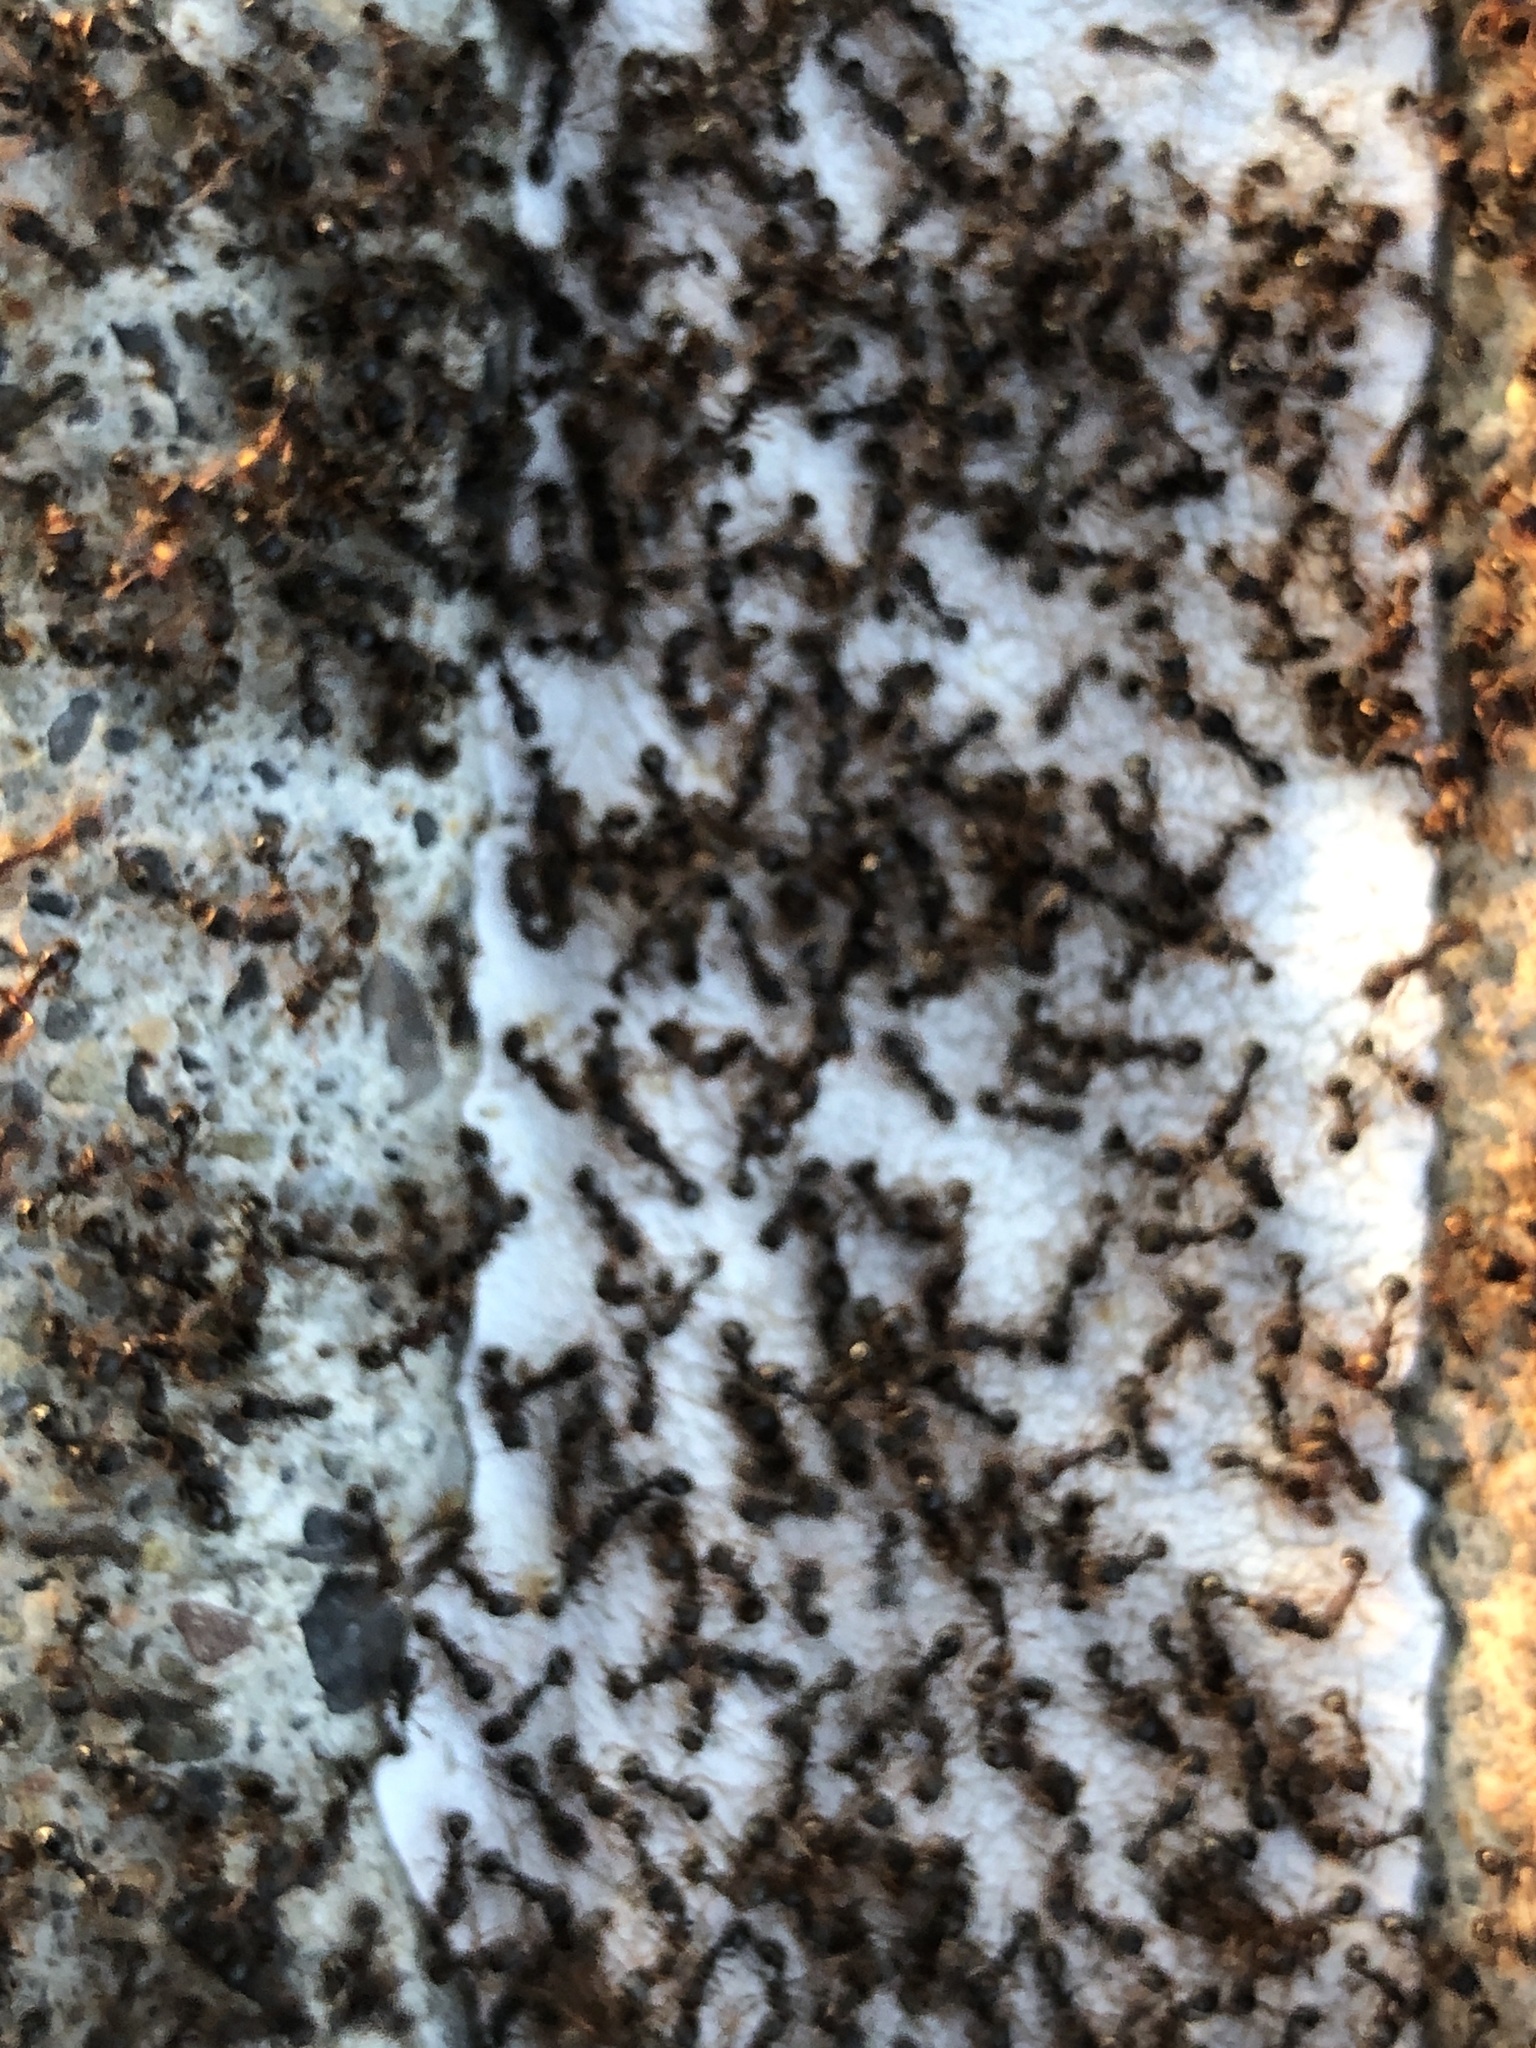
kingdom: Animalia
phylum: Arthropoda
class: Insecta
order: Hymenoptera
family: Formicidae
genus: Tetramorium
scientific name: Tetramorium immigrans
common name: Pavement ant
